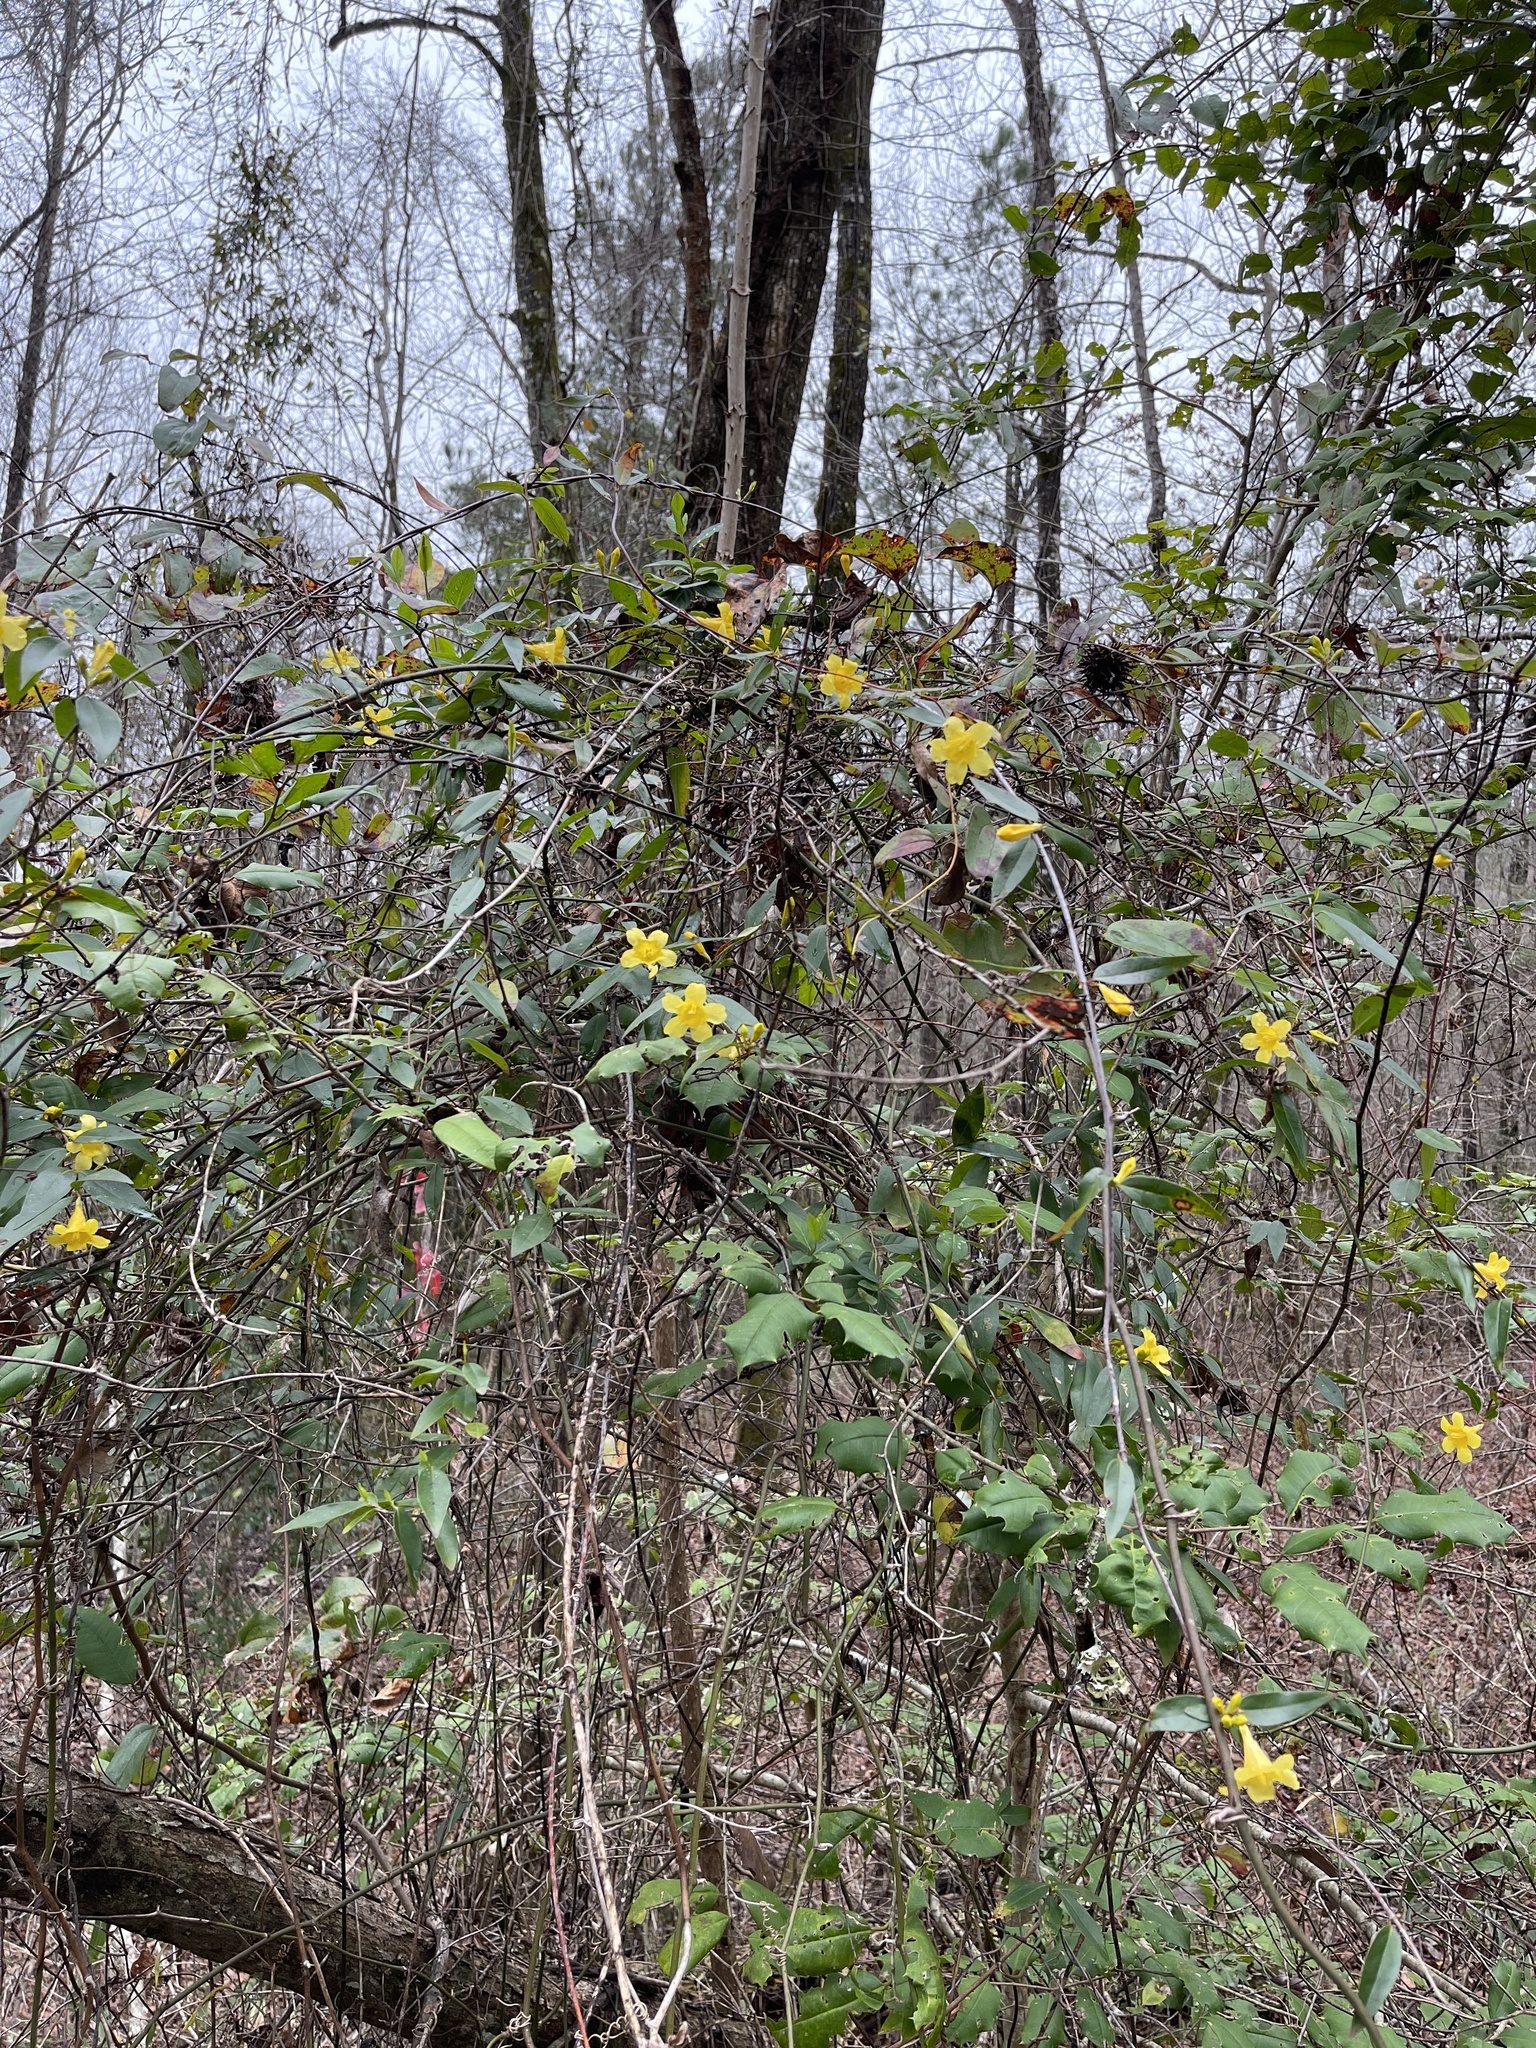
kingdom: Plantae
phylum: Tracheophyta
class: Magnoliopsida
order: Gentianales
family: Gelsemiaceae
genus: Gelsemium
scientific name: Gelsemium sempervirens
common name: Carolina-jasmine
